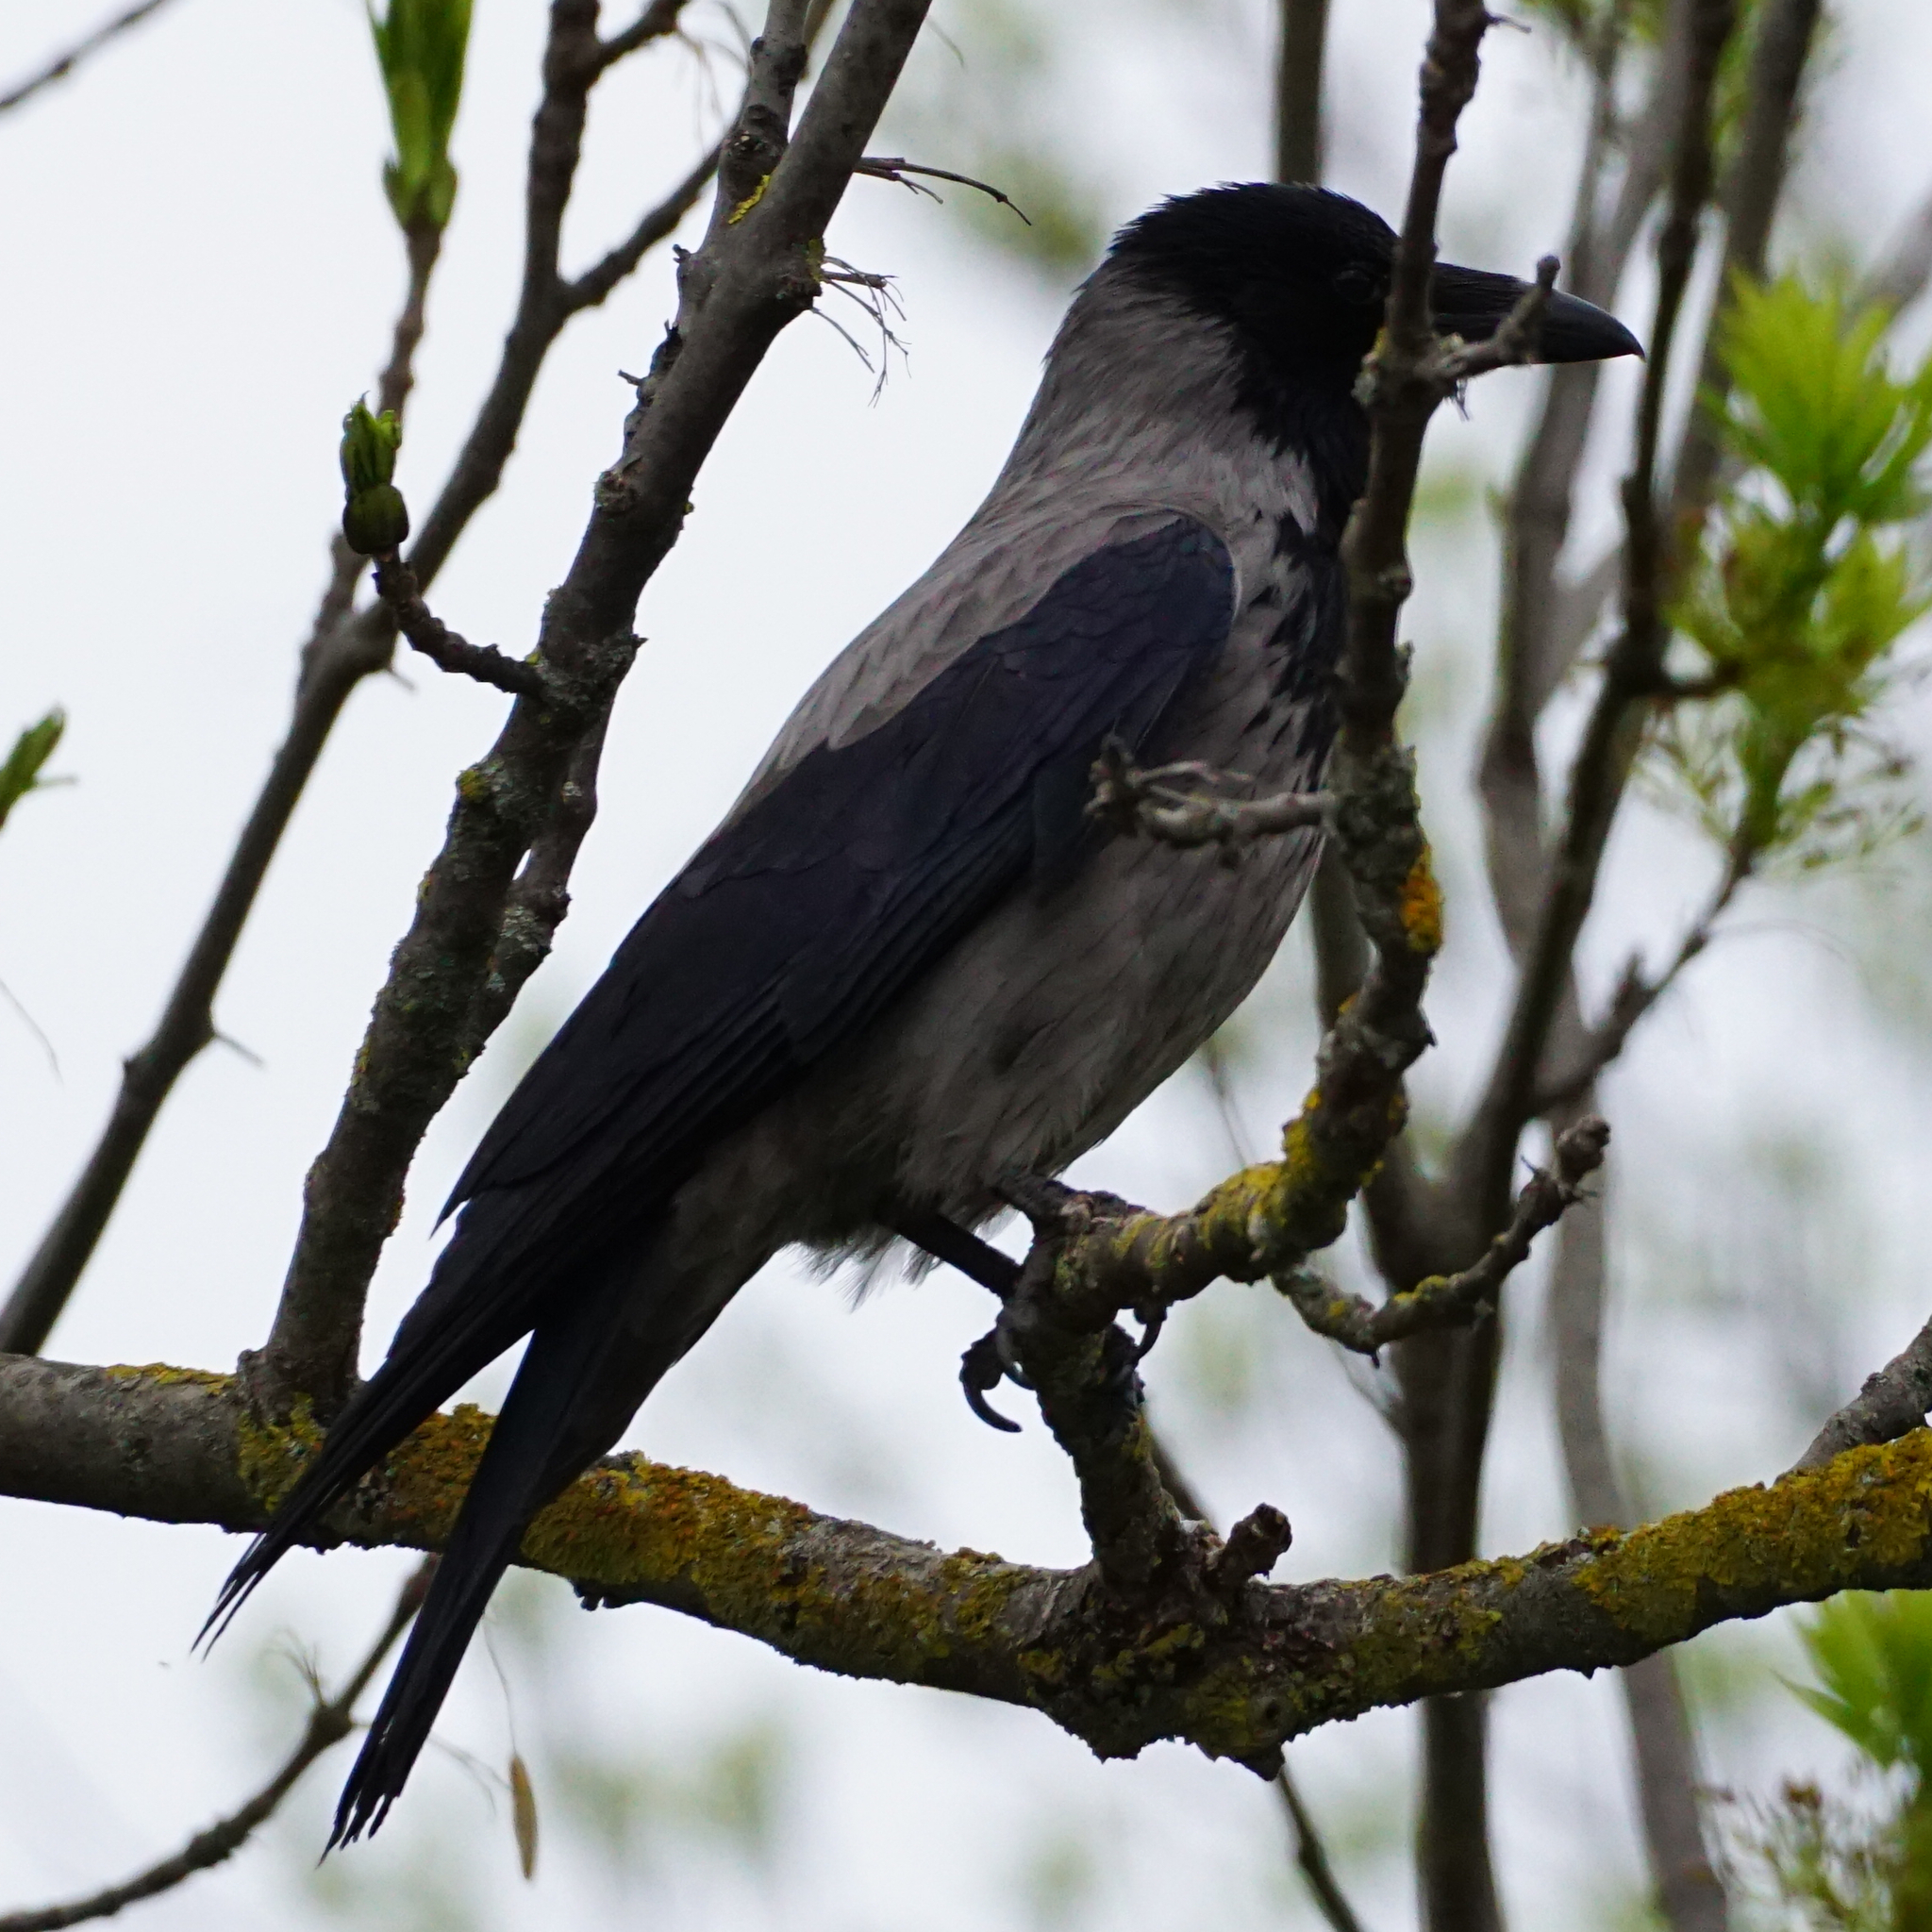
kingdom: Animalia
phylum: Chordata
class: Aves
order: Passeriformes
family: Corvidae
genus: Corvus
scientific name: Corvus cornix
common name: Hooded crow
